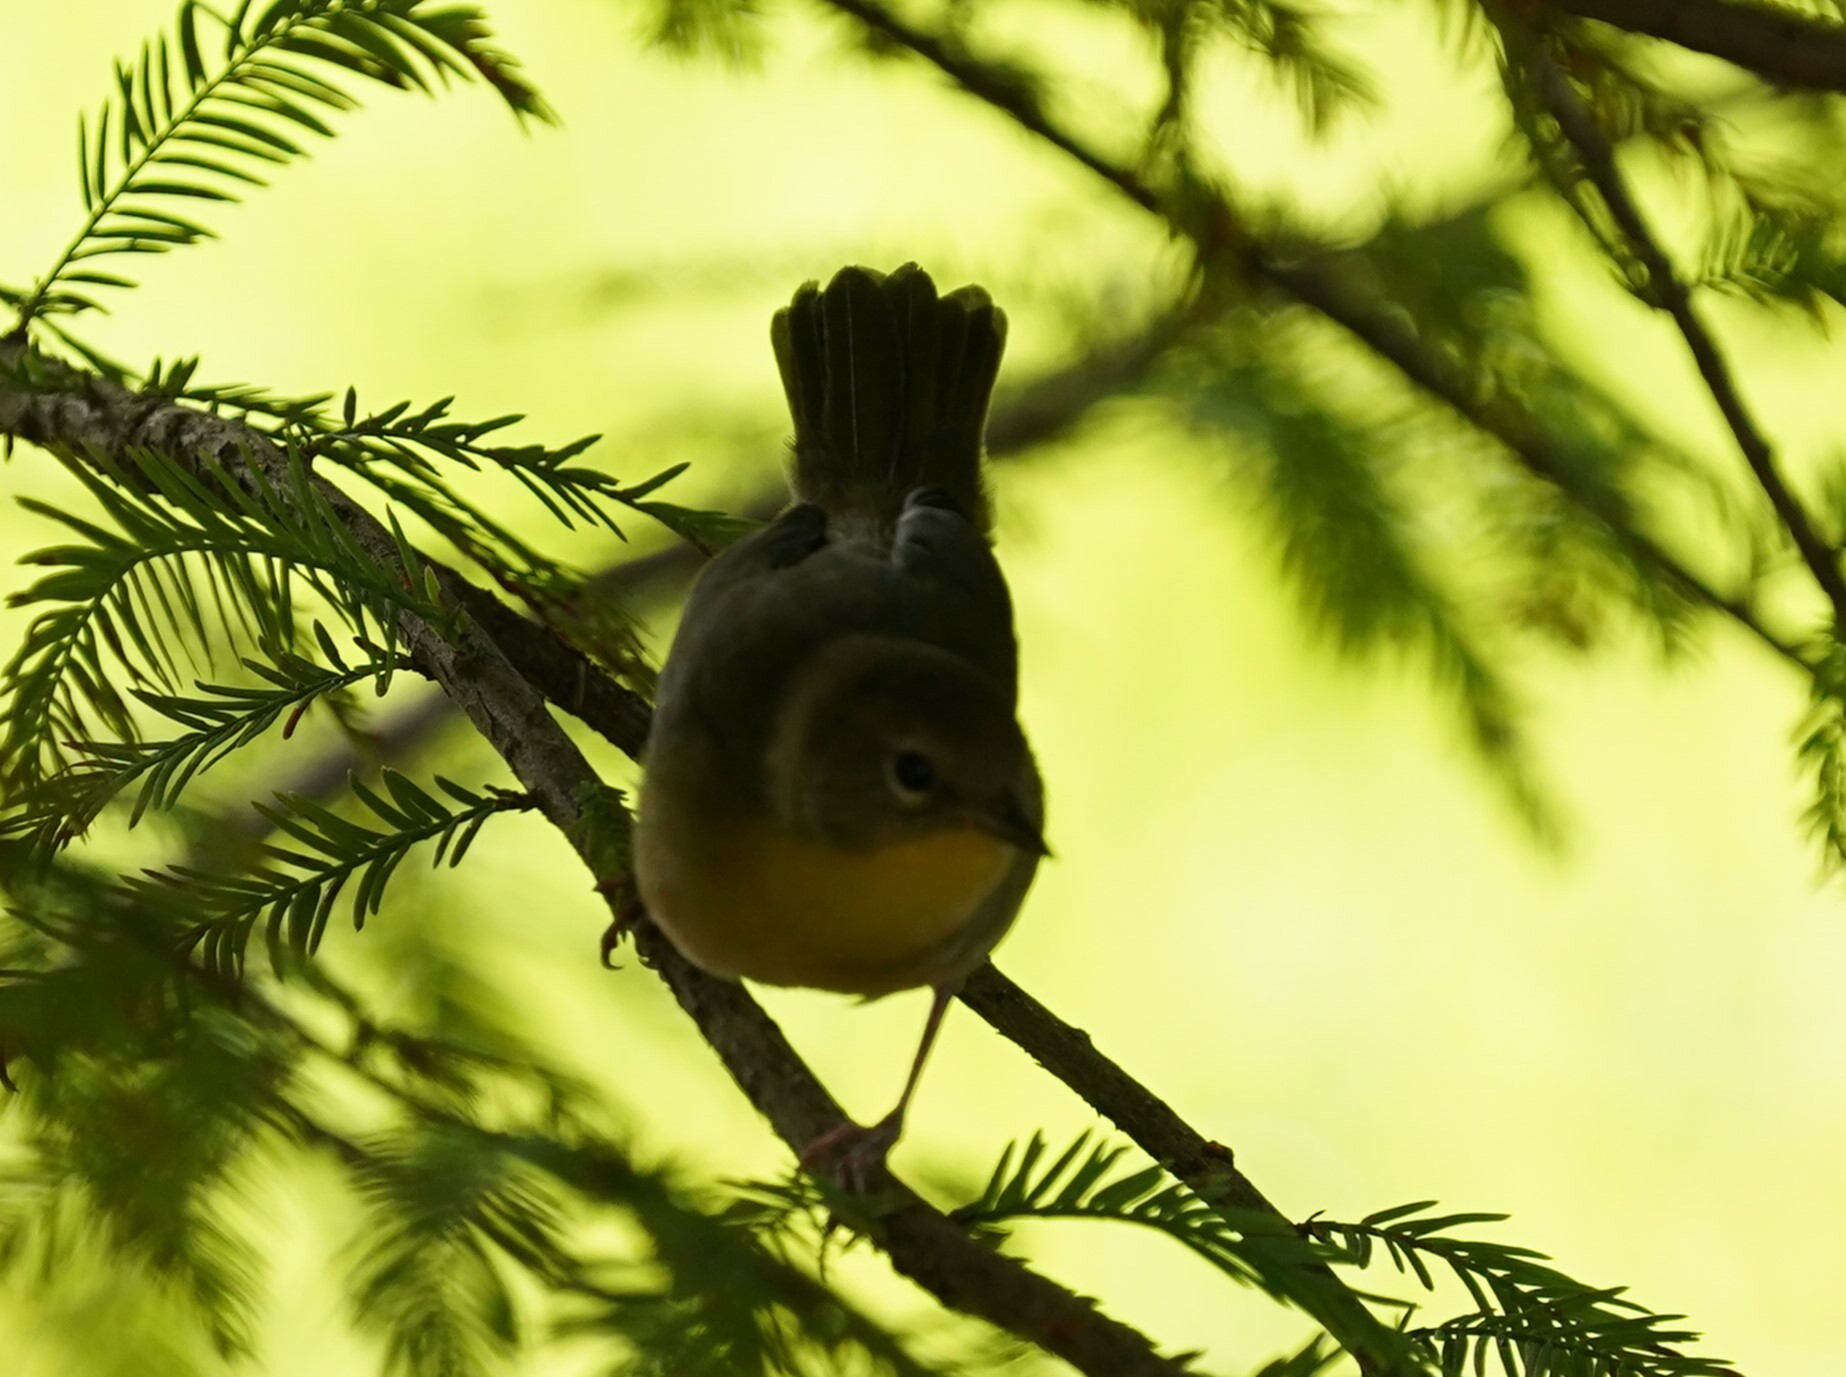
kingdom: Animalia
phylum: Chordata
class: Aves
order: Passeriformes
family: Parulidae
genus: Geothlypis
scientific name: Geothlypis trichas
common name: Common yellowthroat
